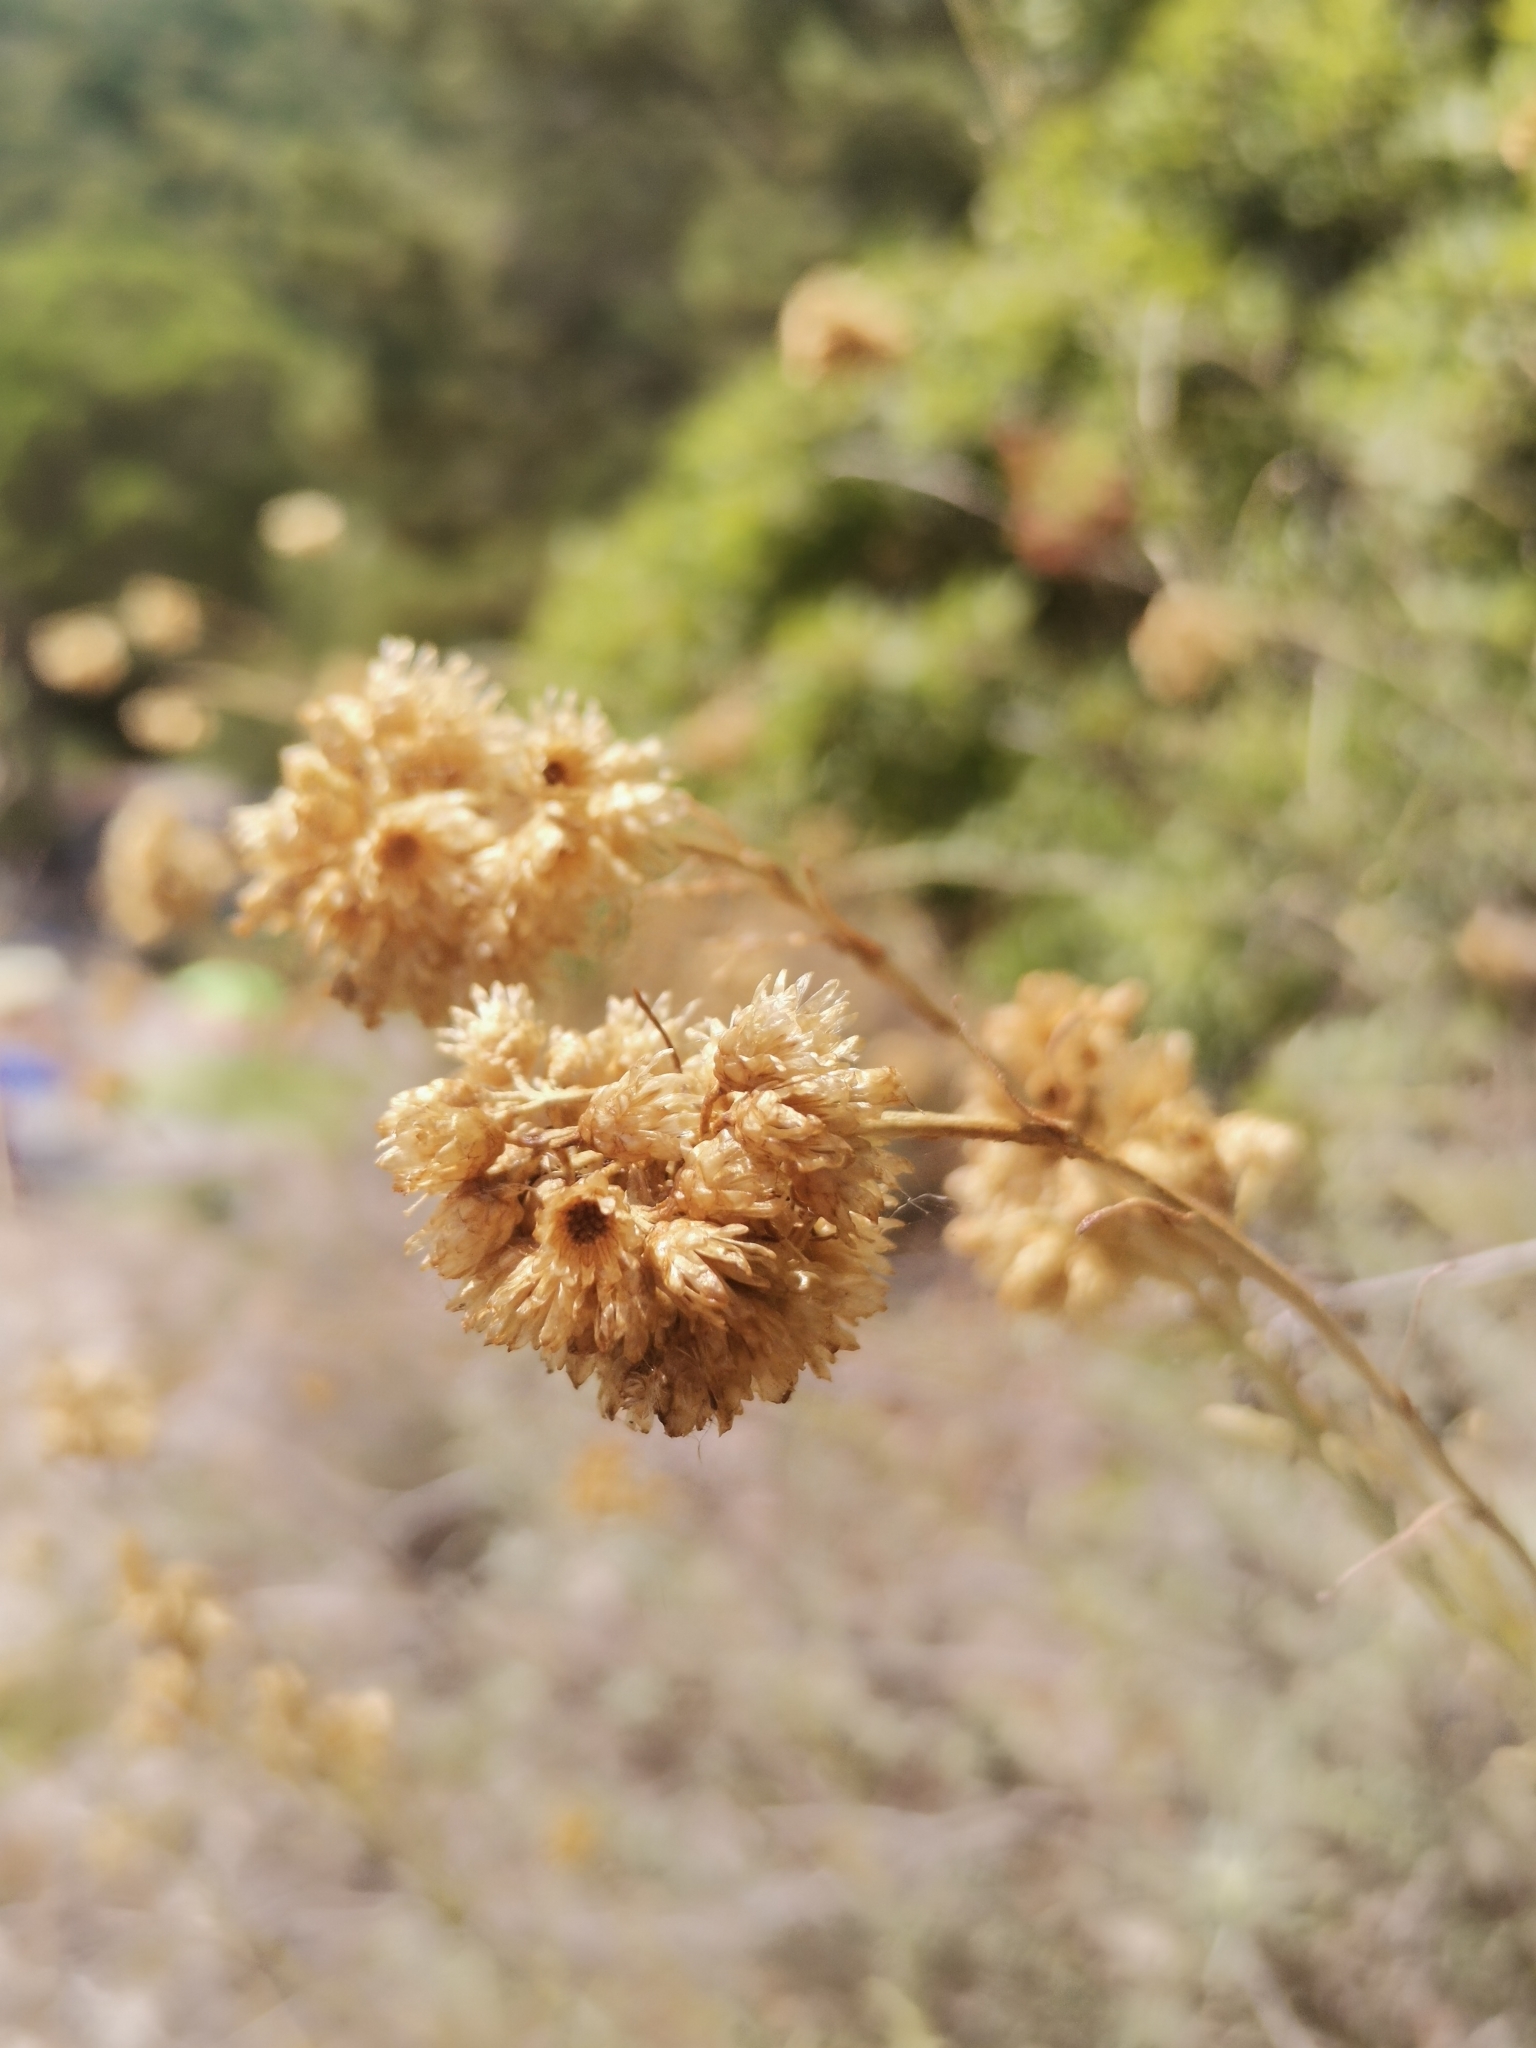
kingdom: Plantae
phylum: Tracheophyta
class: Magnoliopsida
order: Asterales
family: Asteraceae
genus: Helichrysum
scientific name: Helichrysum italicum
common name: Curryplant
